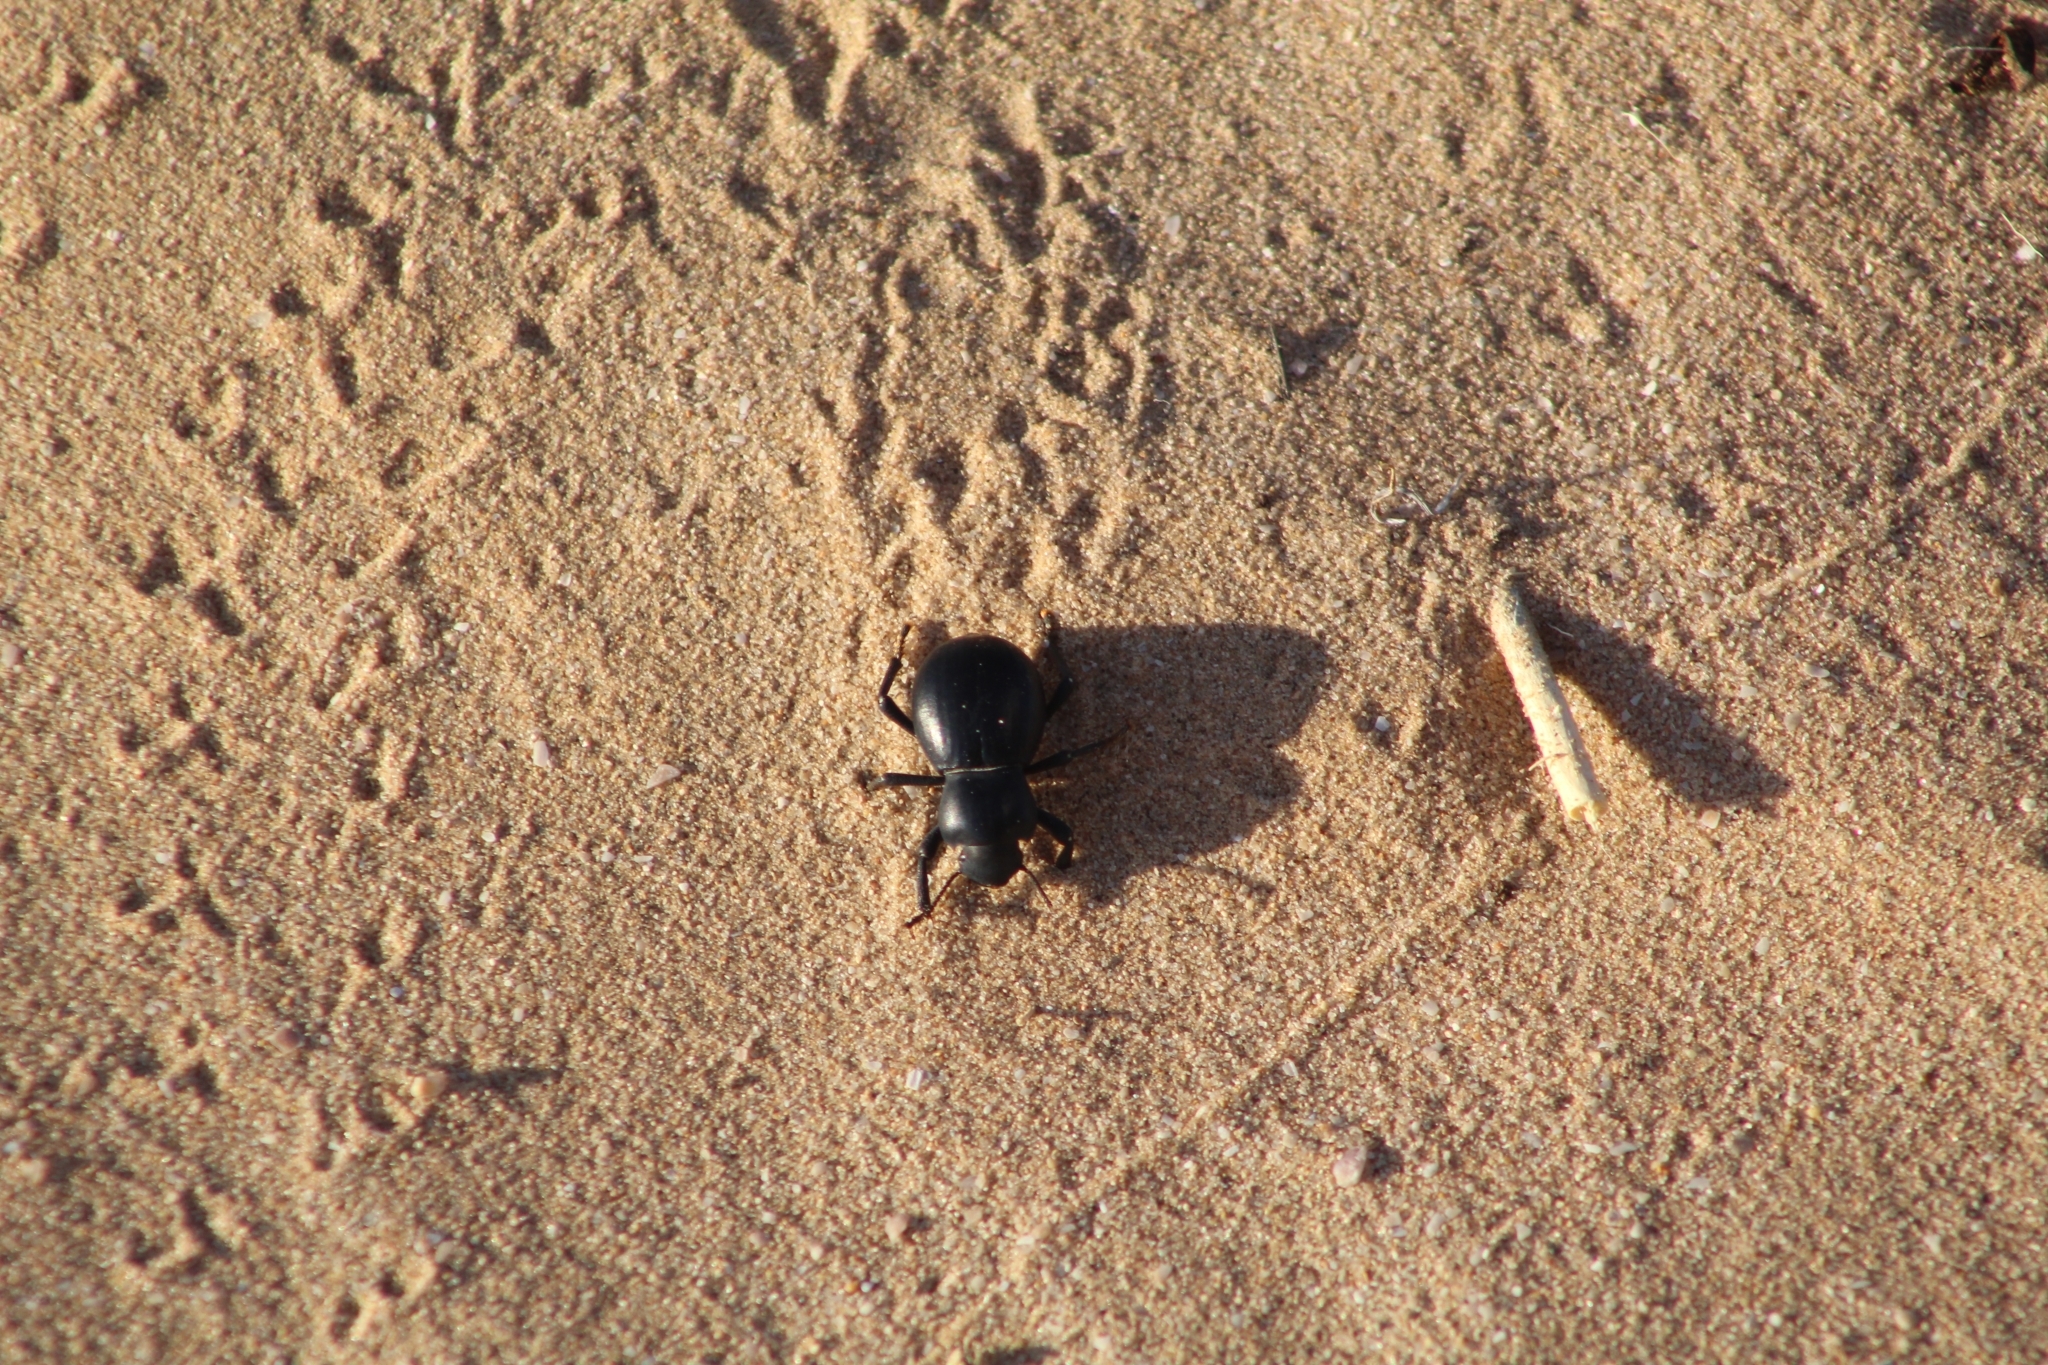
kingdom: Animalia
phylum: Arthropoda
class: Insecta
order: Coleoptera
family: Tenebrionidae
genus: Asbolus
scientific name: Asbolus laevis
